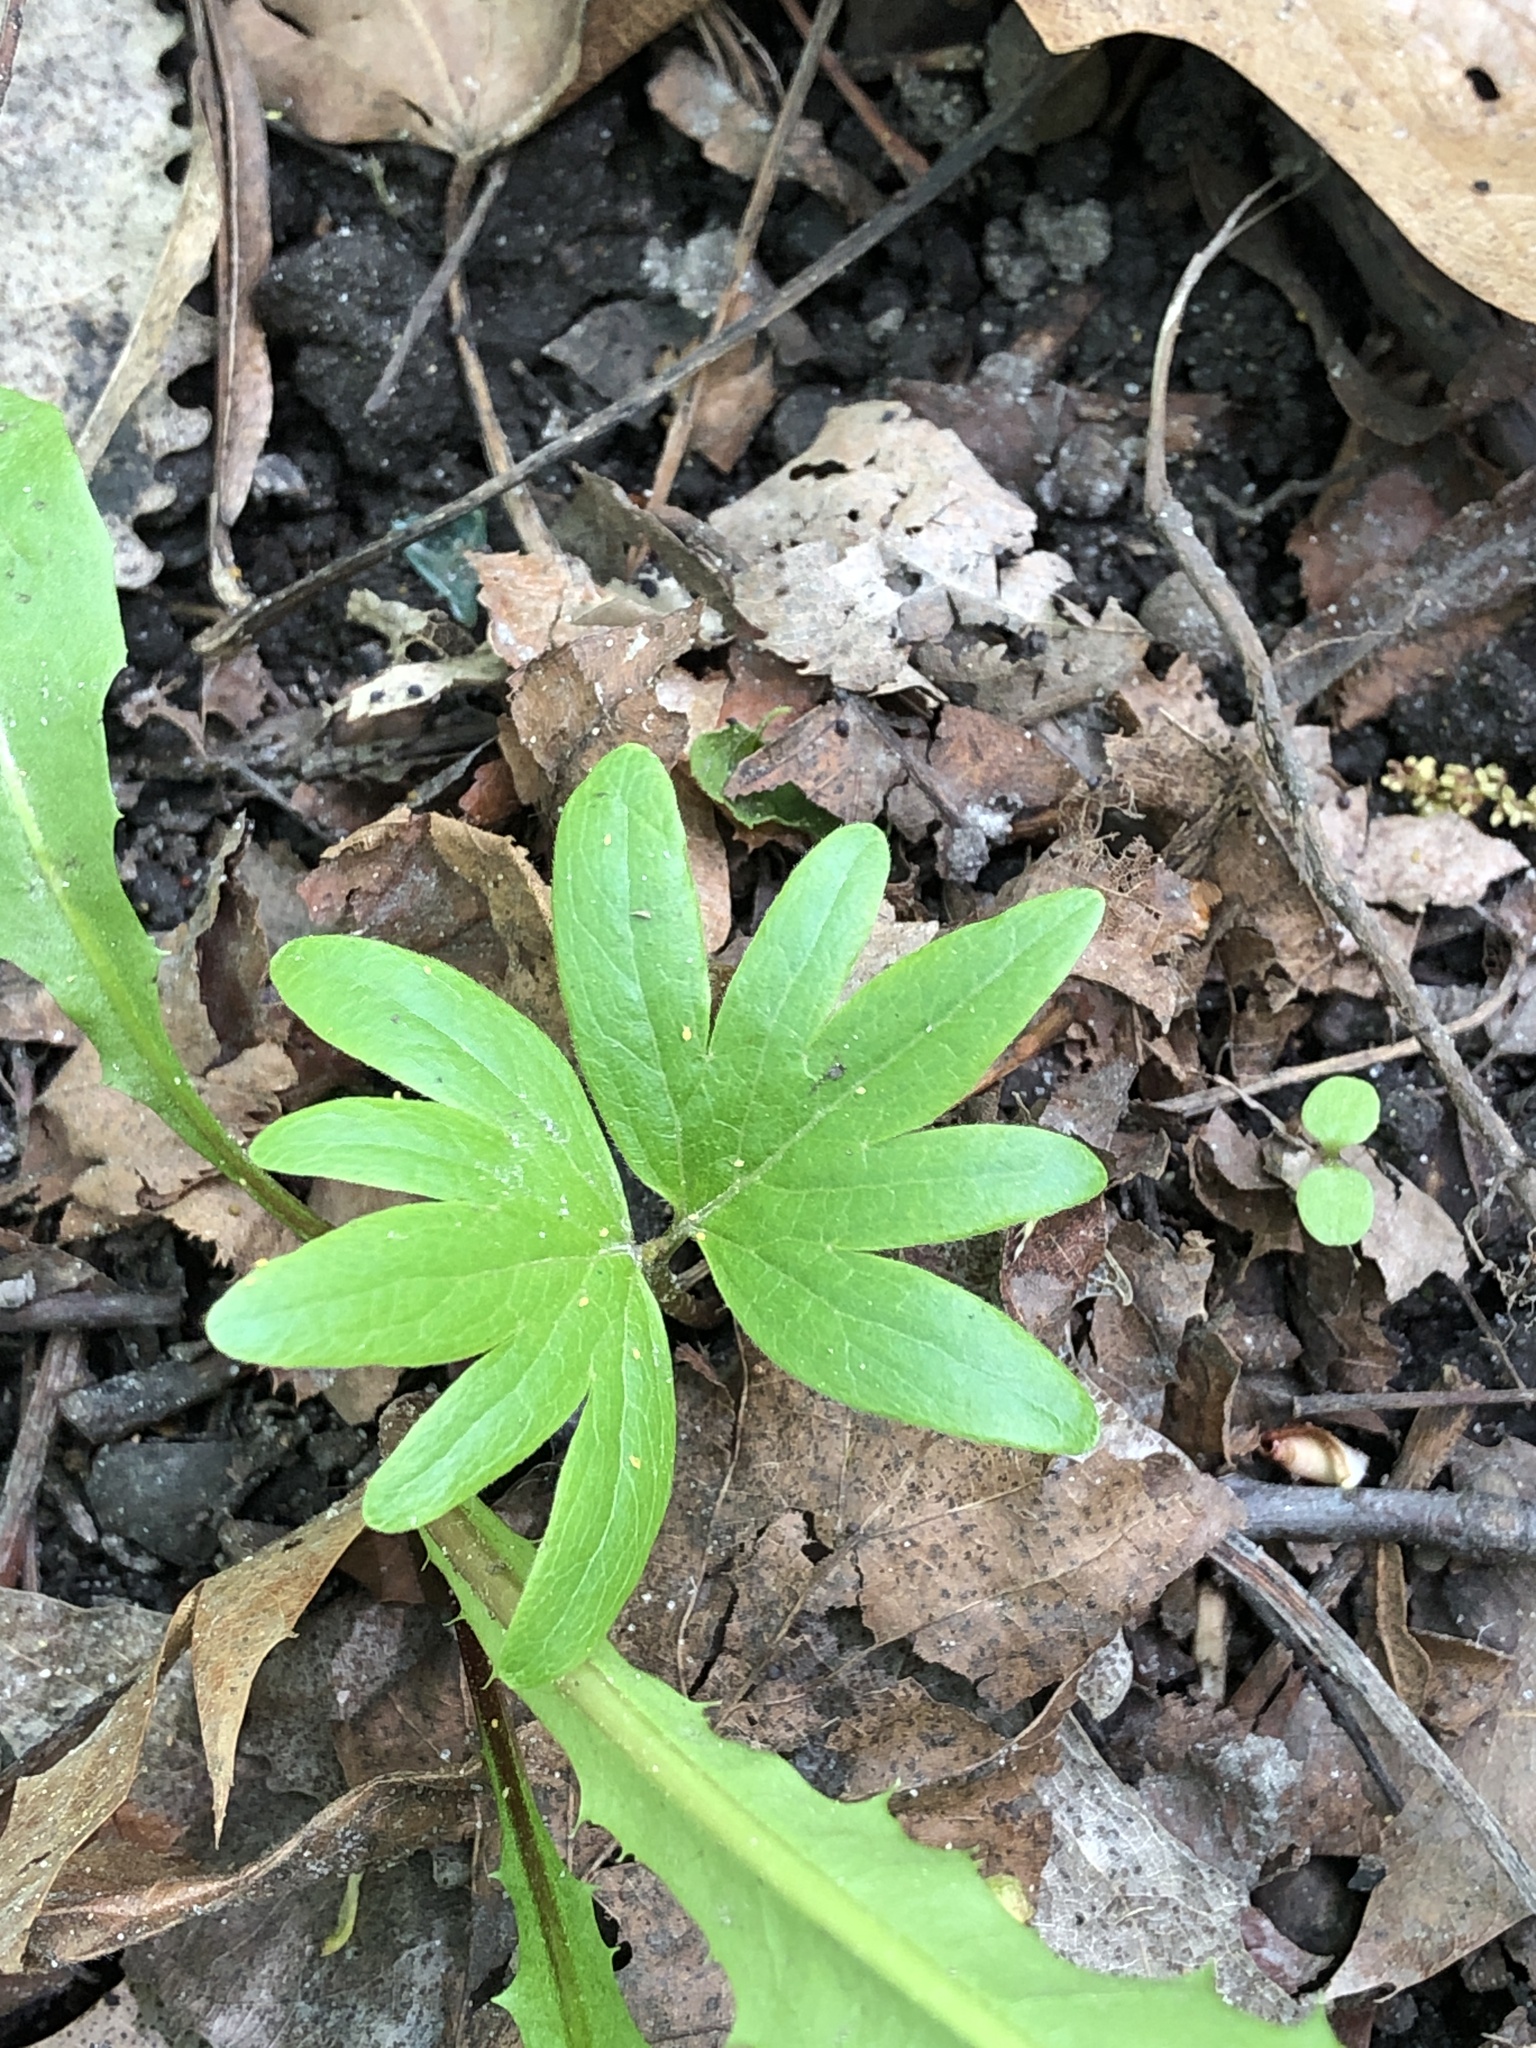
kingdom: Plantae
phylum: Tracheophyta
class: Magnoliopsida
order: Malvales
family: Malvaceae
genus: Tilia
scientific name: Tilia americana
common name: Basswood
